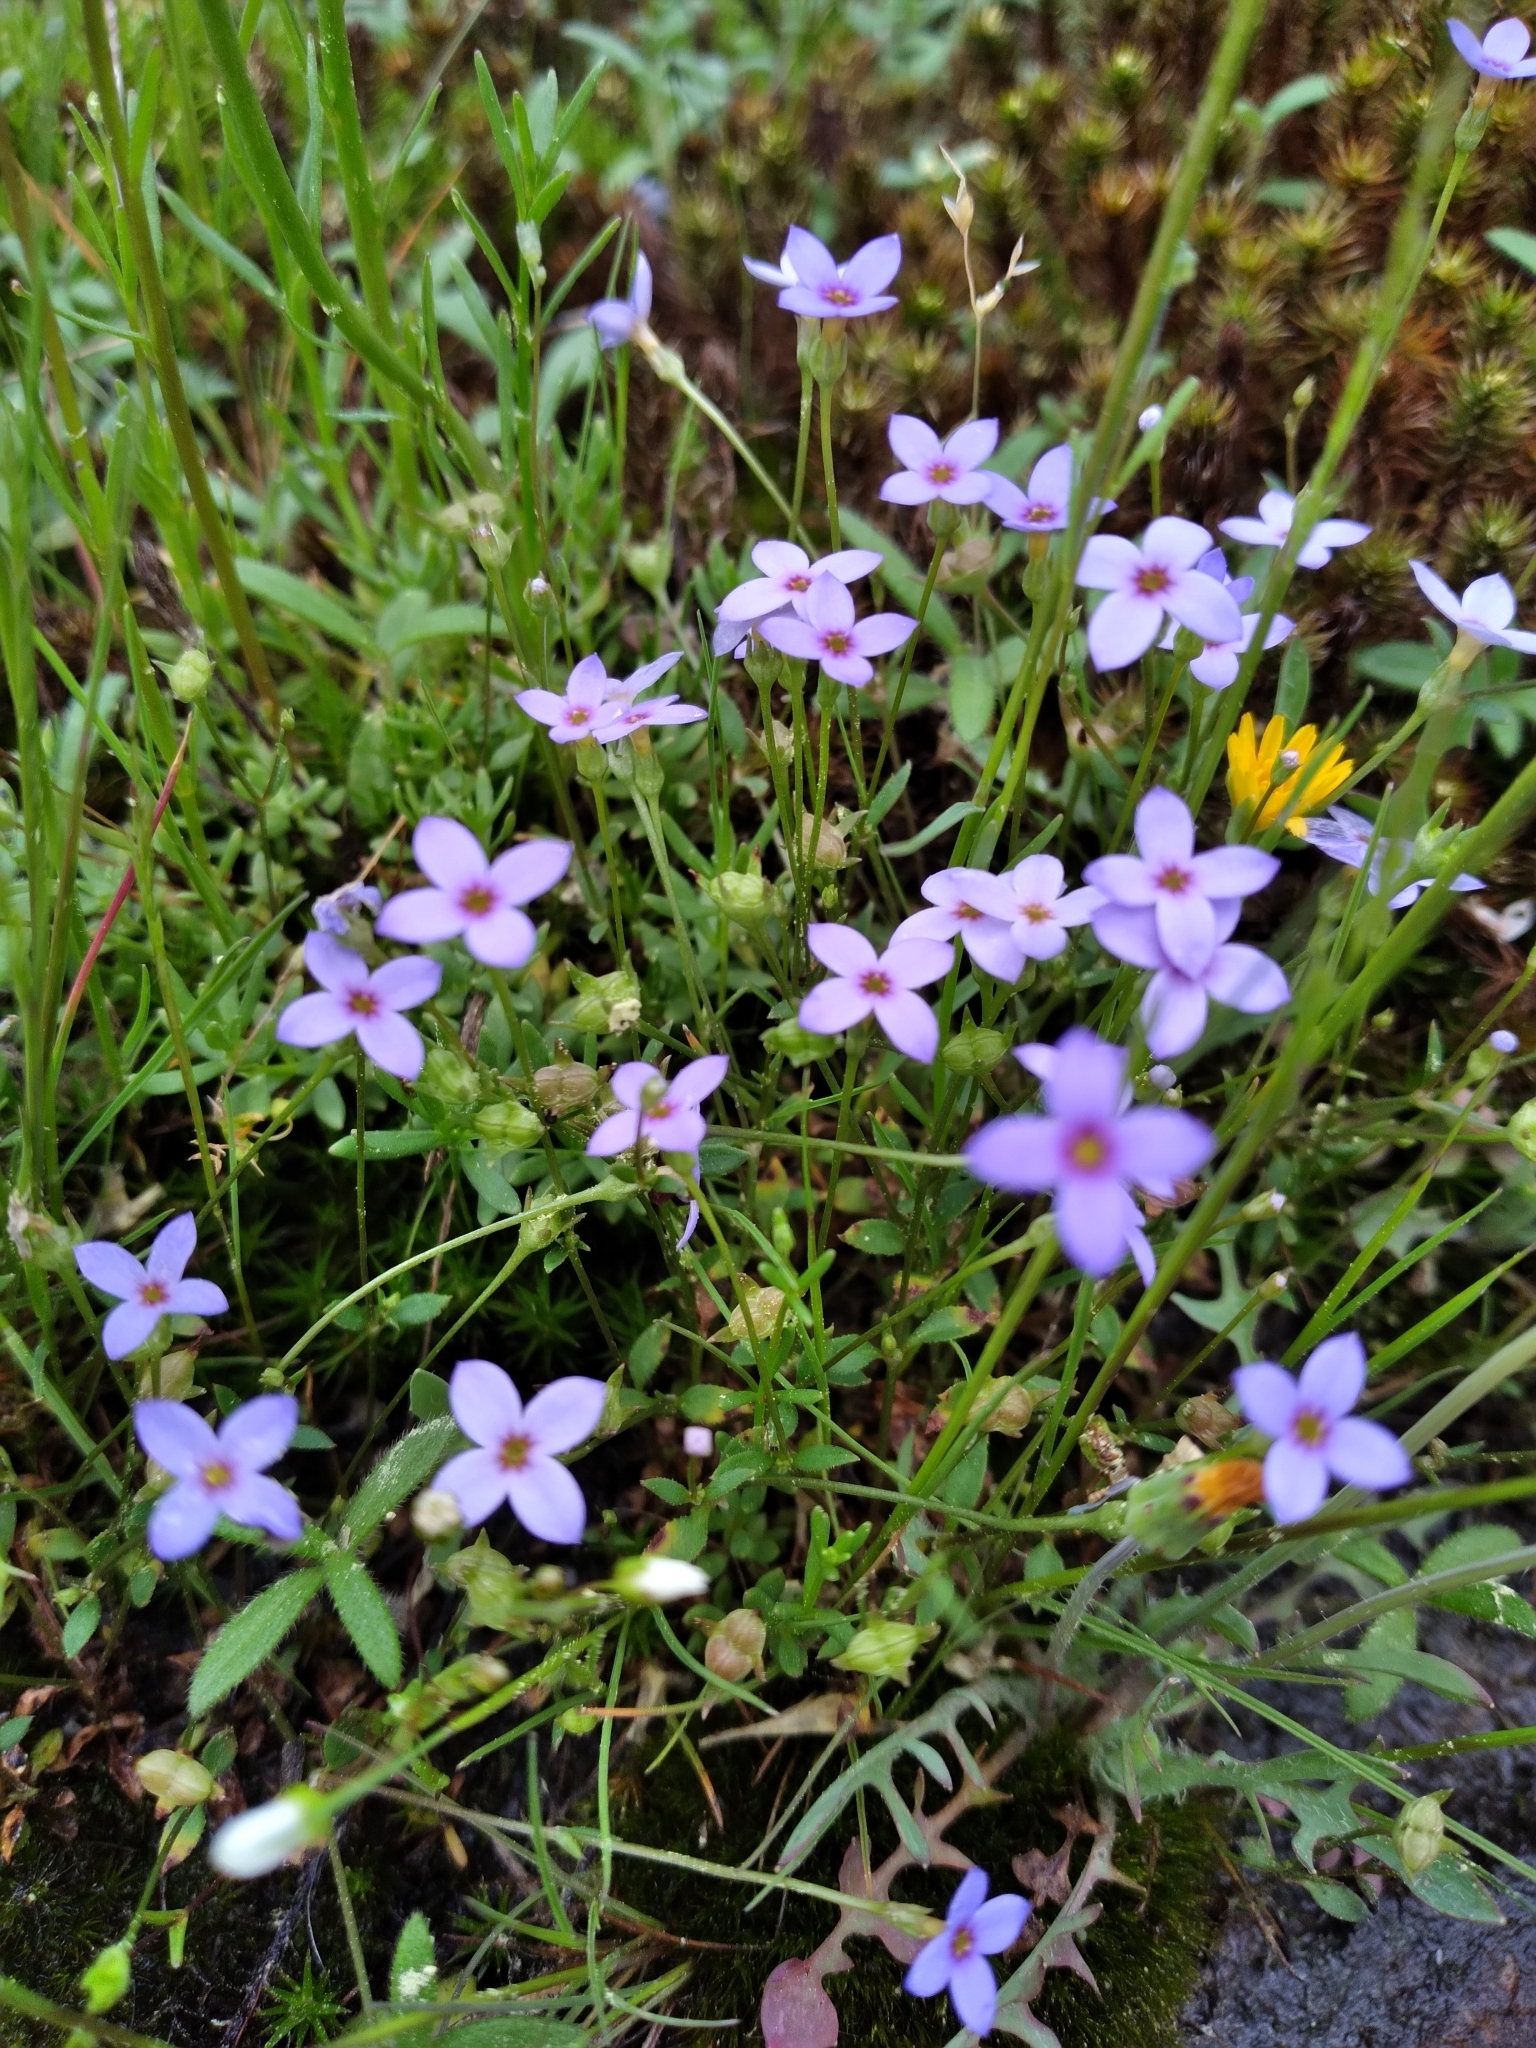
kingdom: Plantae
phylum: Tracheophyta
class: Magnoliopsida
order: Gentianales
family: Rubiaceae
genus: Houstonia
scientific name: Houstonia pusilla
